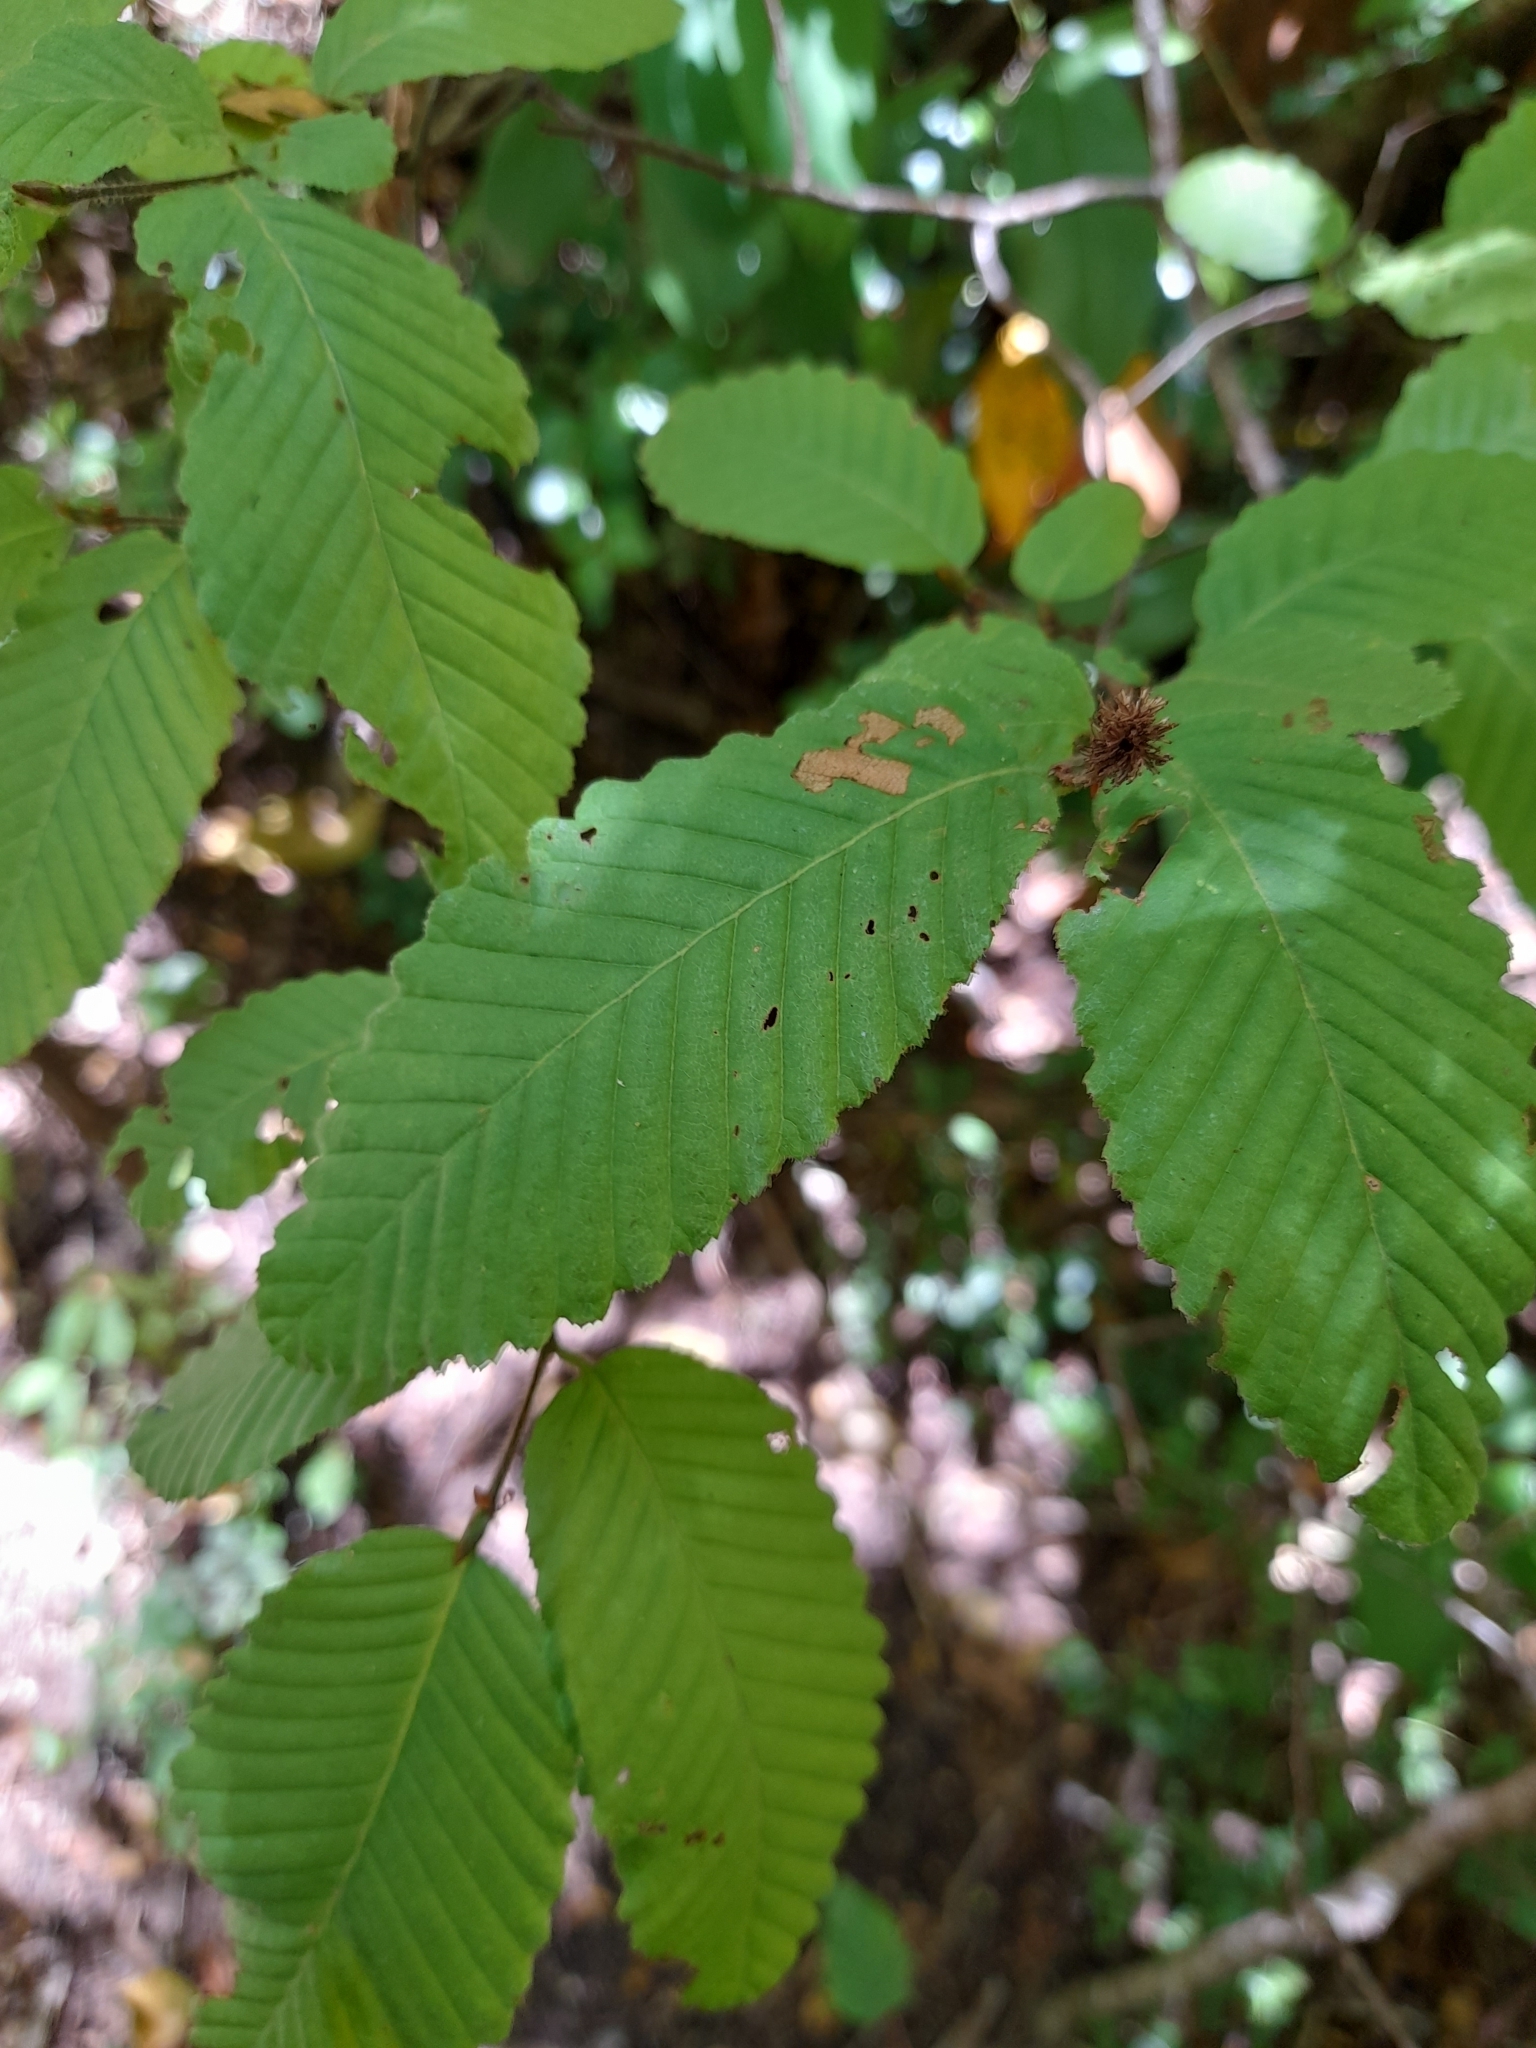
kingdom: Plantae
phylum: Tracheophyta
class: Magnoliopsida
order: Fagales
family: Nothofagaceae
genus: Nothofagus
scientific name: Nothofagus alpina
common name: Rauli
